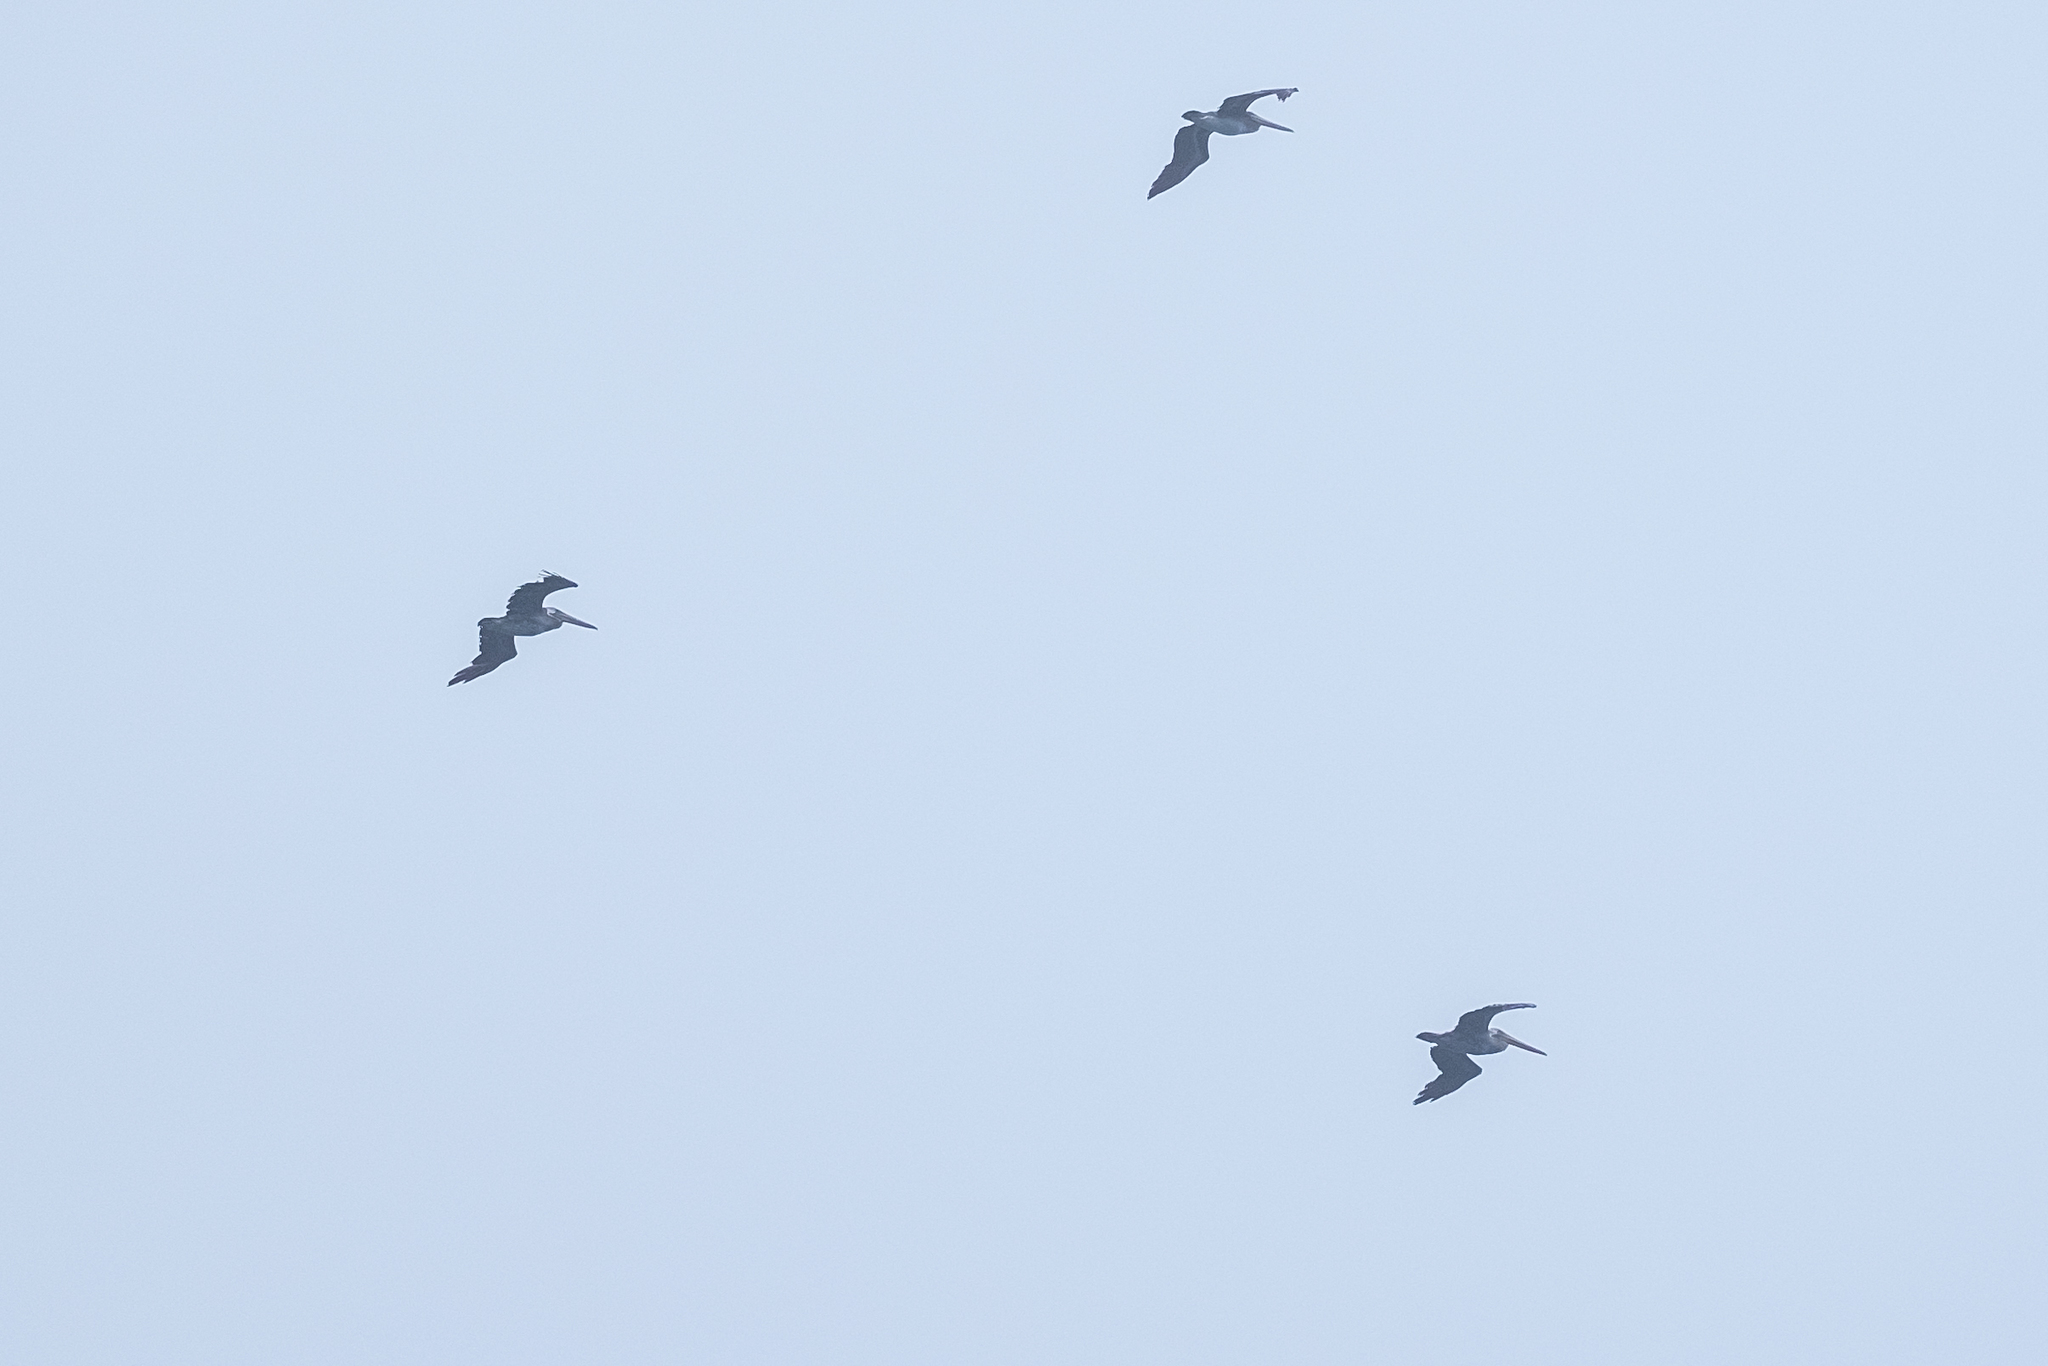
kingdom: Animalia
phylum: Chordata
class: Aves
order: Pelecaniformes
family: Pelecanidae
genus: Pelecanus
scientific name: Pelecanus occidentalis
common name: Brown pelican
